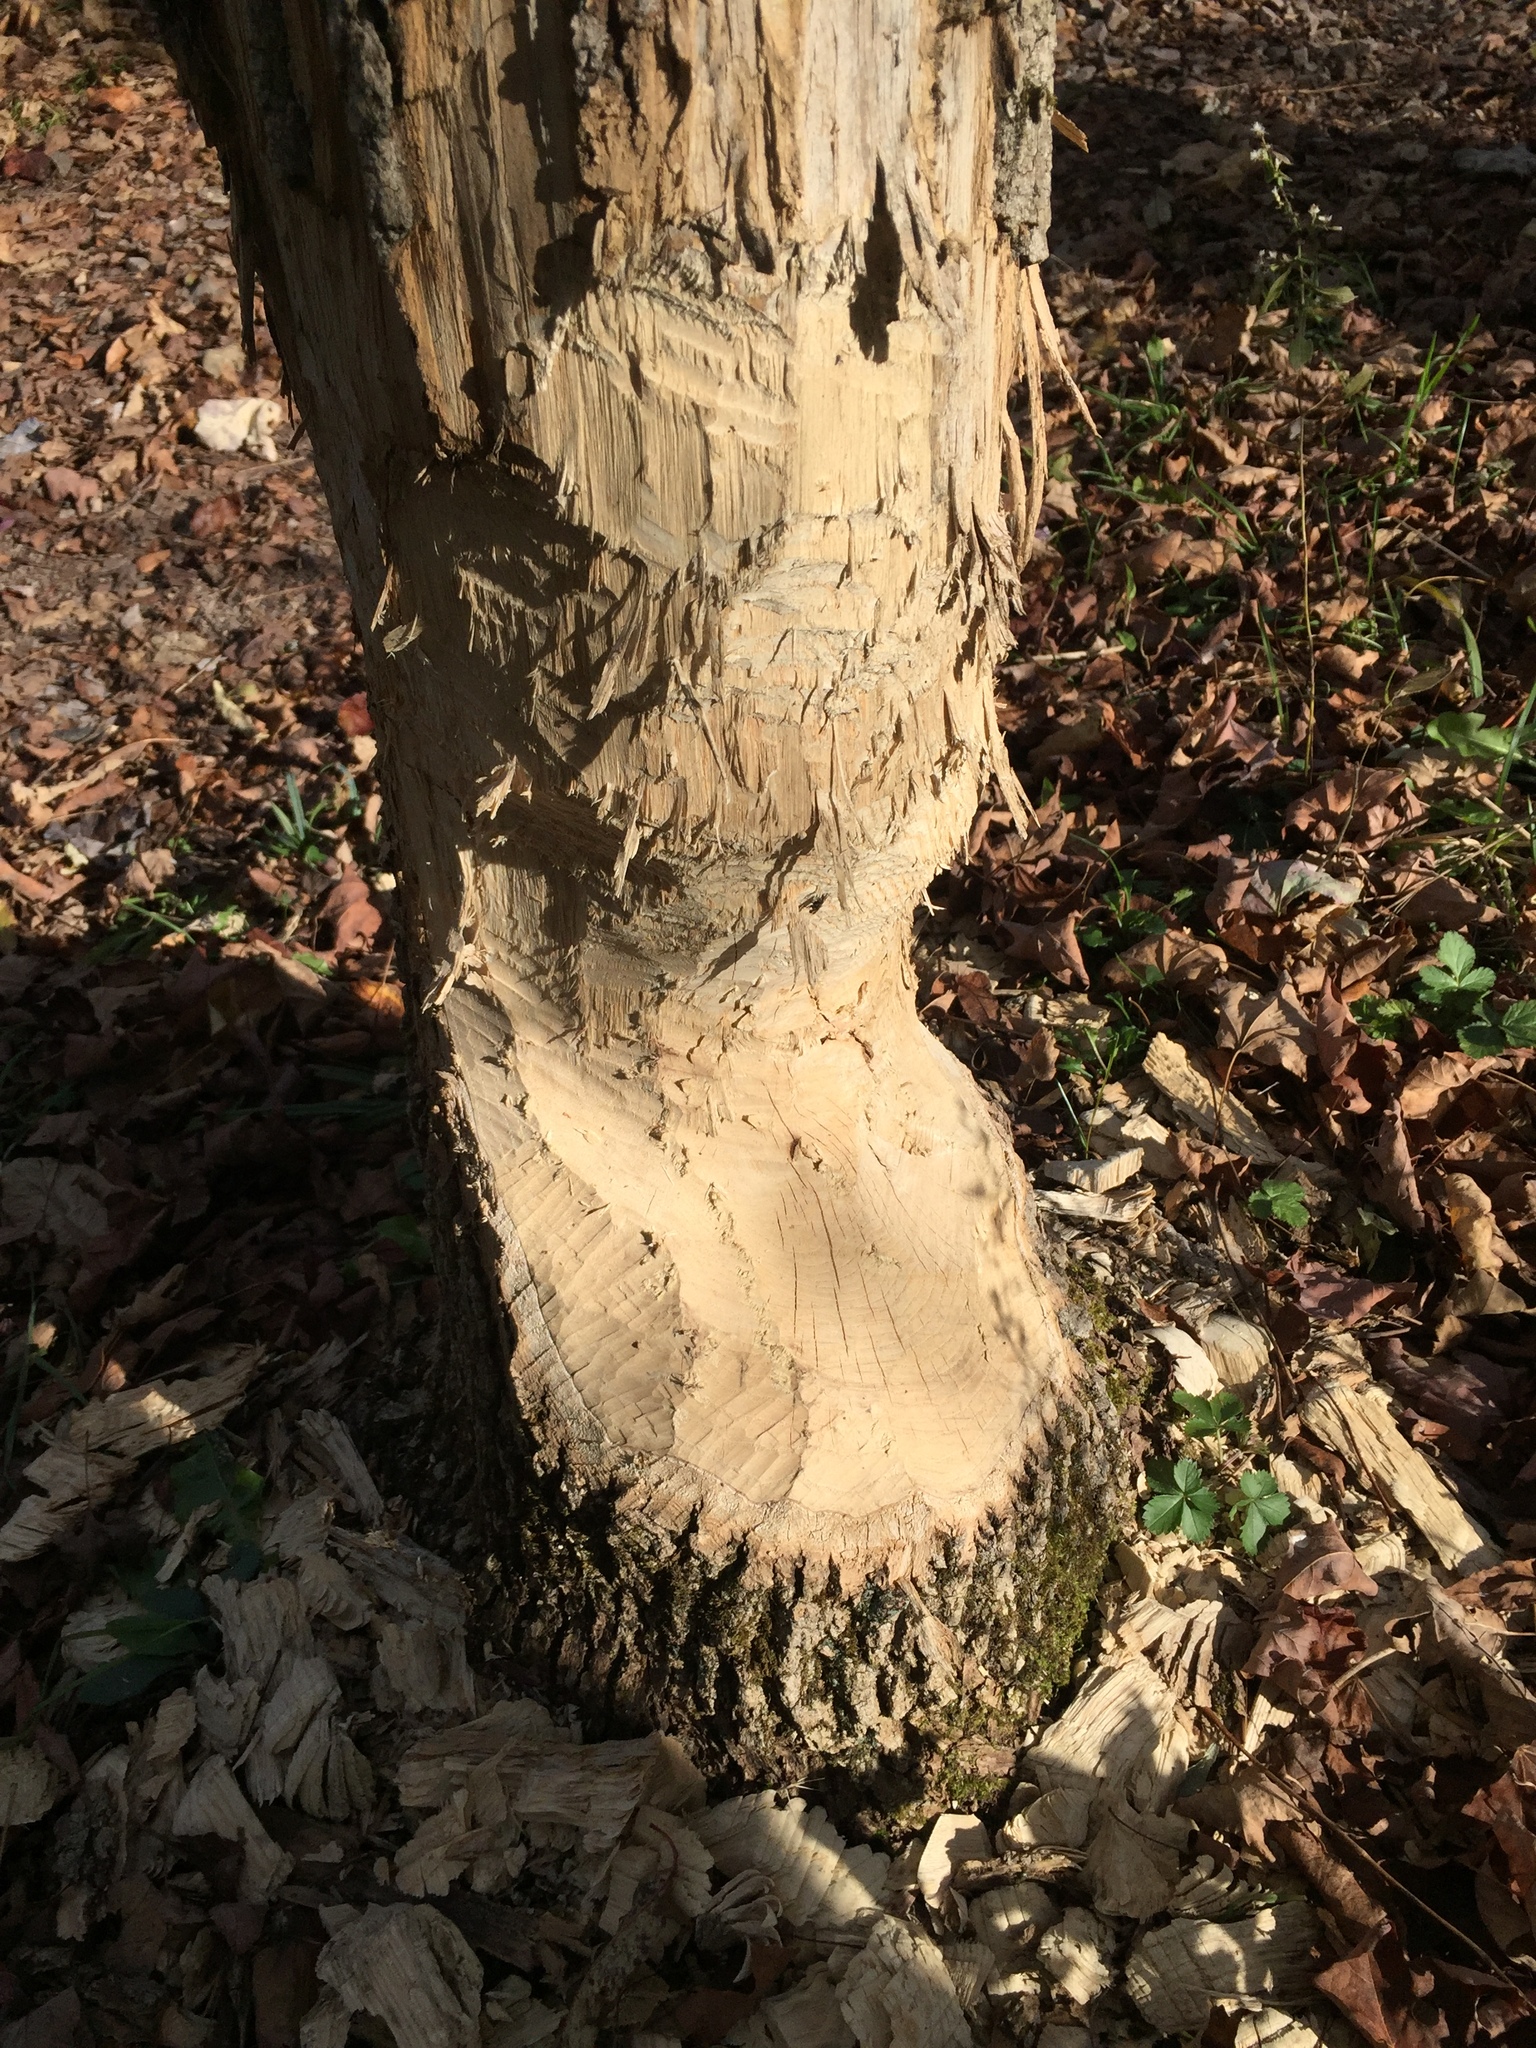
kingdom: Animalia
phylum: Chordata
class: Mammalia
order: Rodentia
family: Castoridae
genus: Castor
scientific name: Castor canadensis
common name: American beaver
